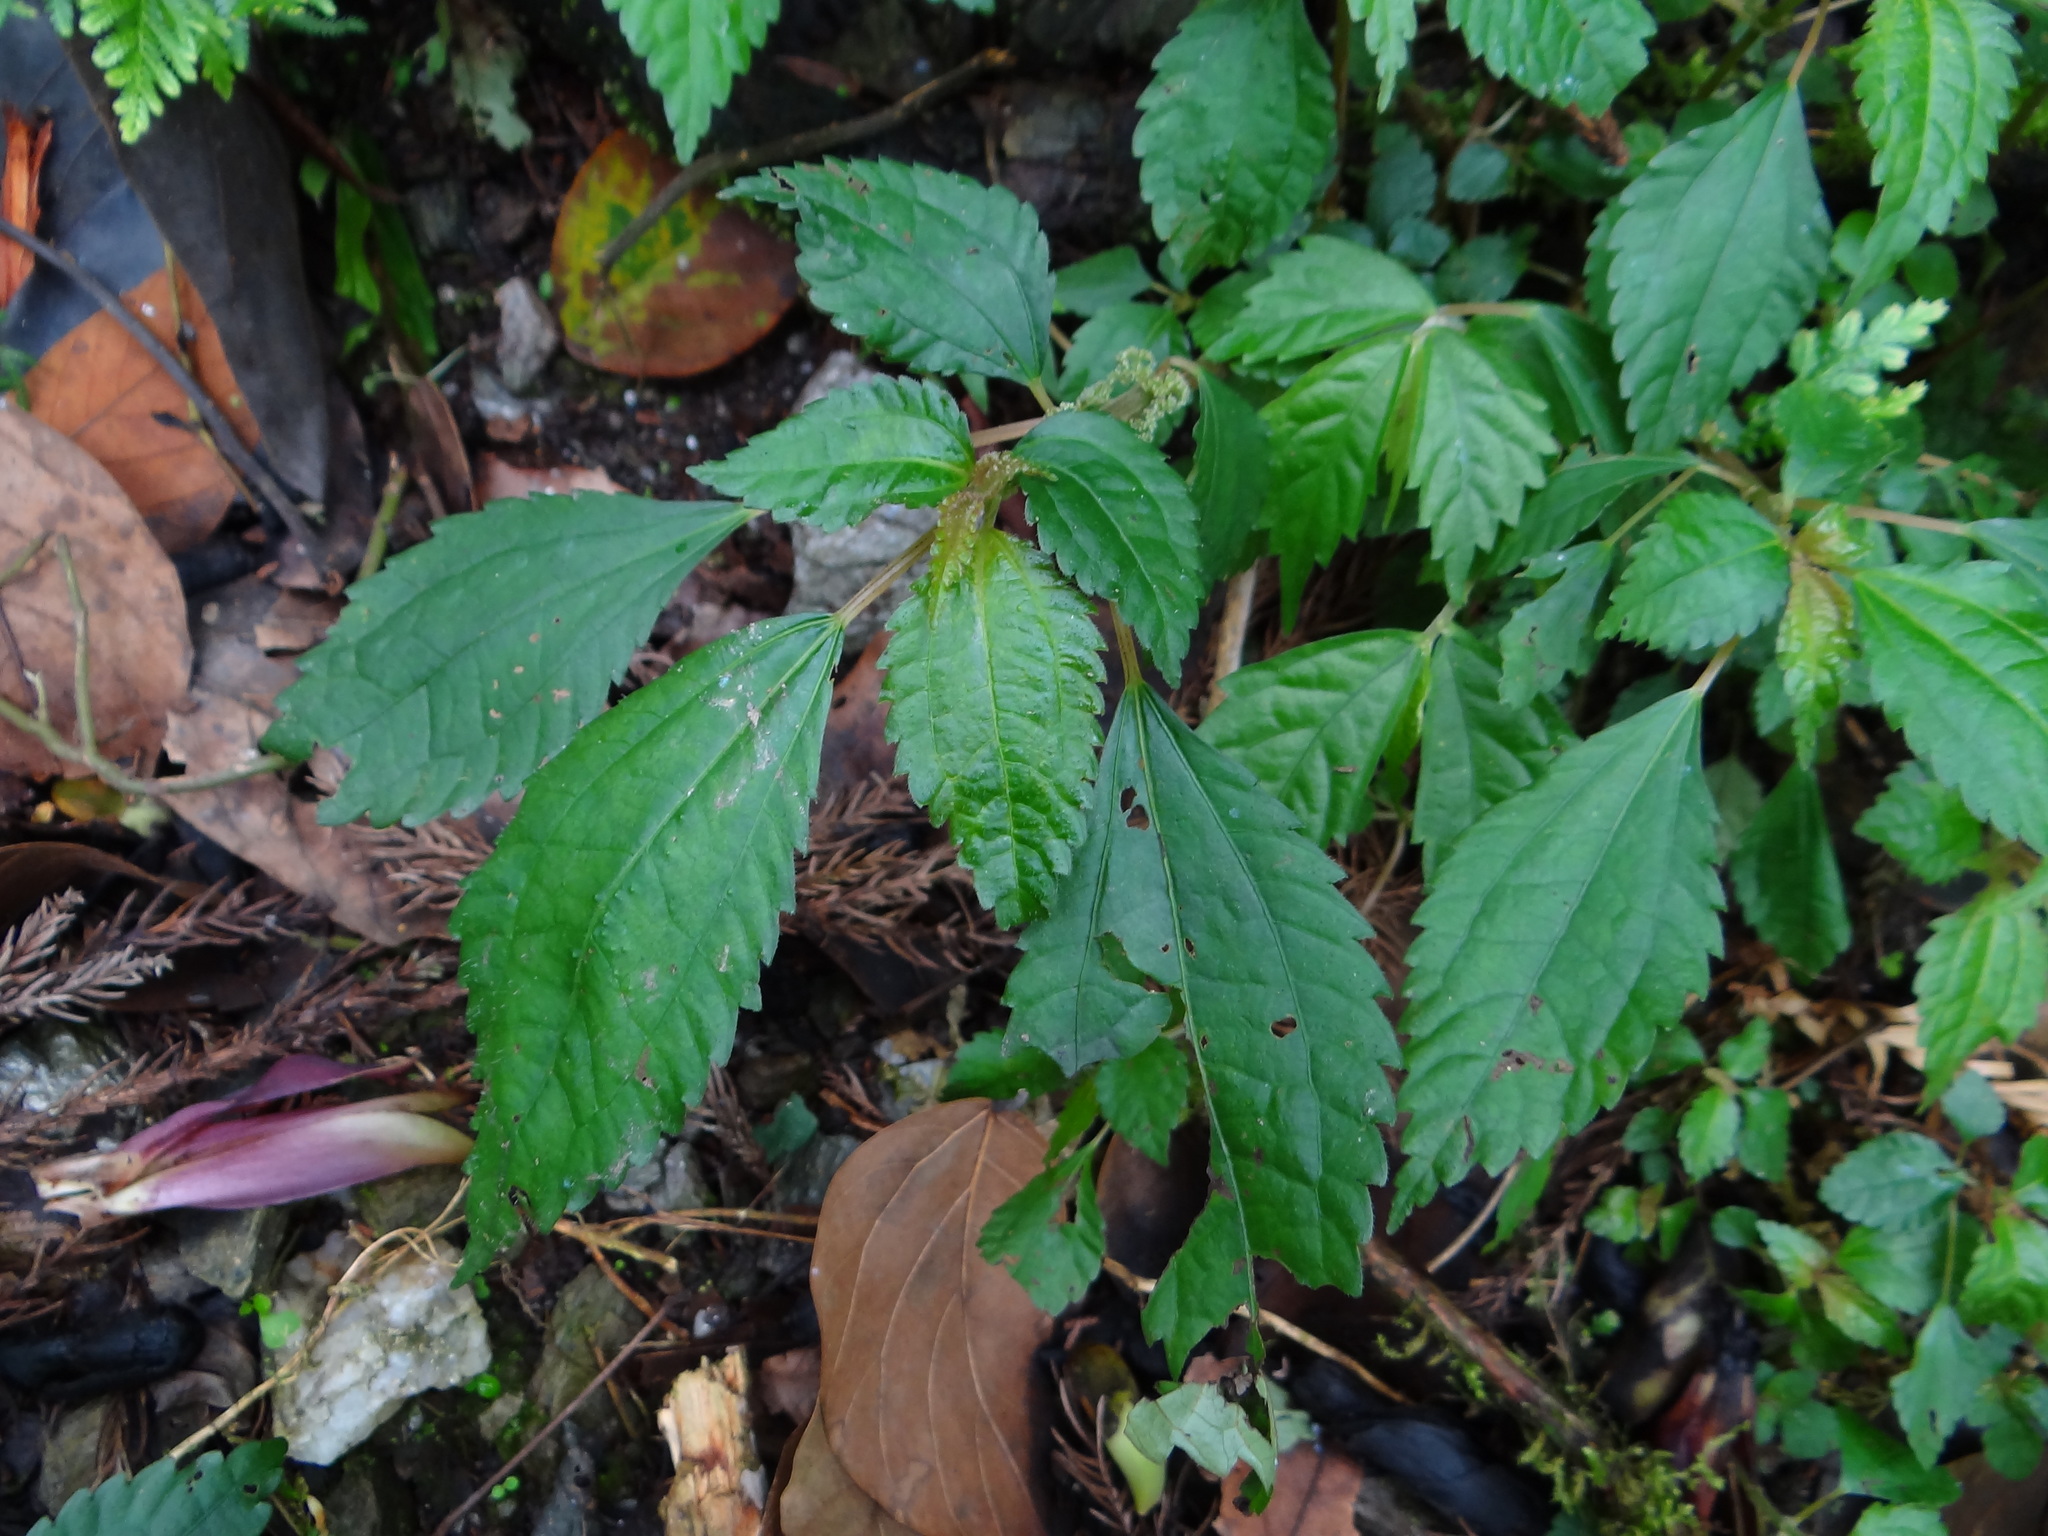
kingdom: Plantae
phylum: Tracheophyta
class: Magnoliopsida
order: Rosales
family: Urticaceae
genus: Pilea
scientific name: Pilea angulata
